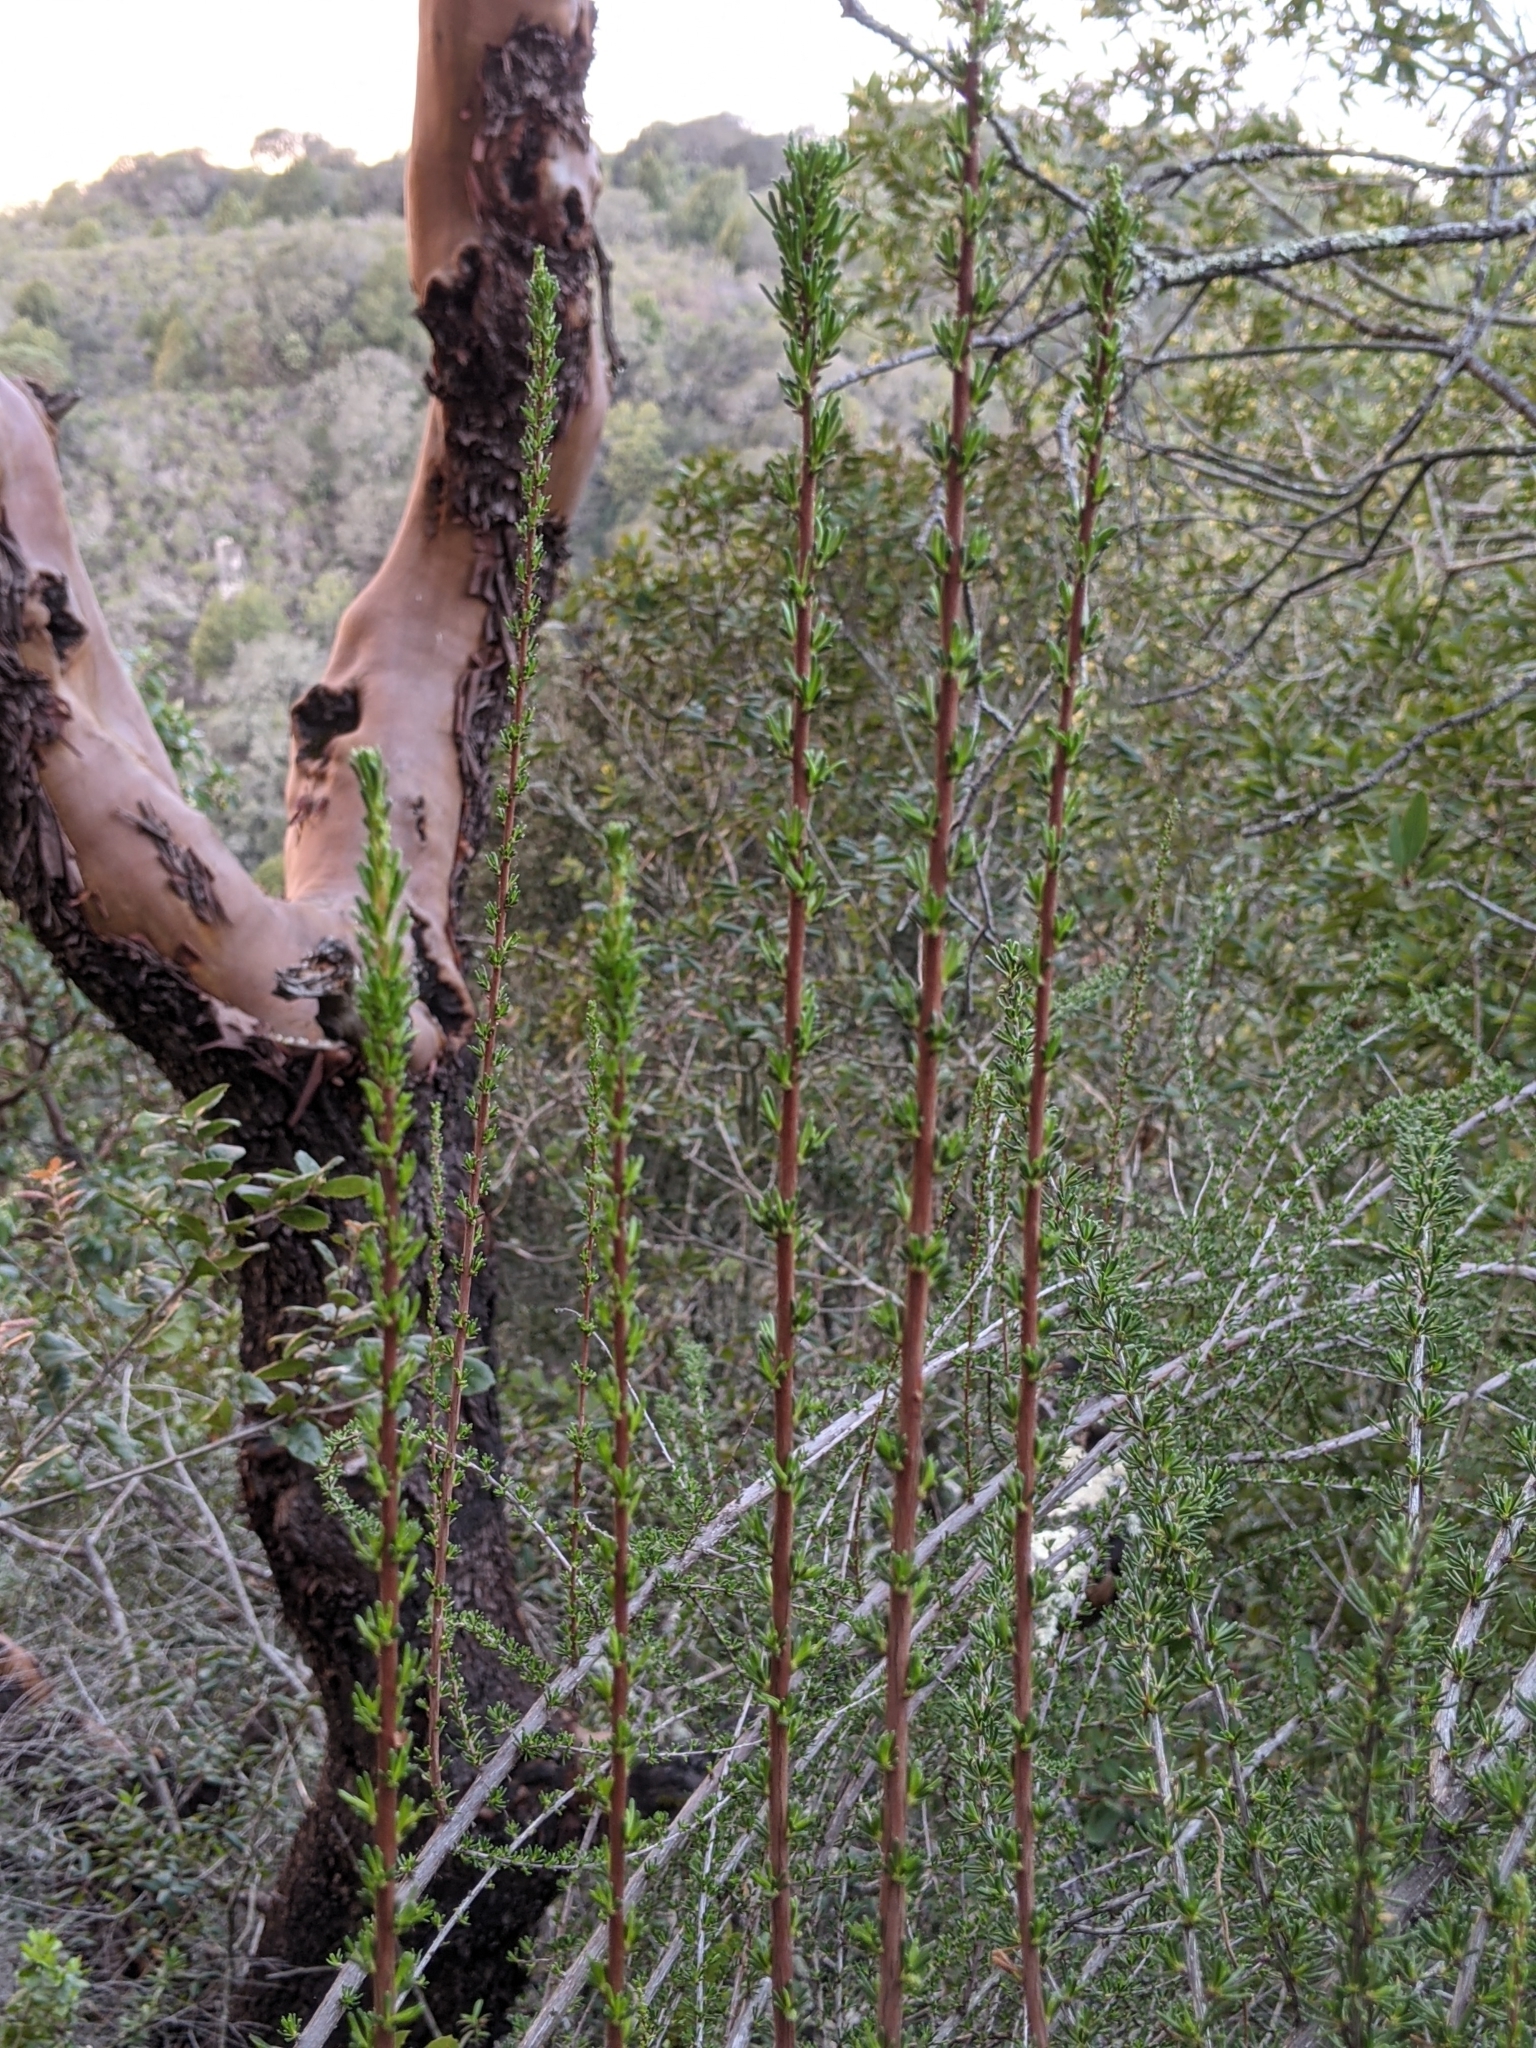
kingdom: Plantae
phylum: Tracheophyta
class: Magnoliopsida
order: Rosales
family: Rosaceae
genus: Adenostoma
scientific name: Adenostoma fasciculatum
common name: Chamise
